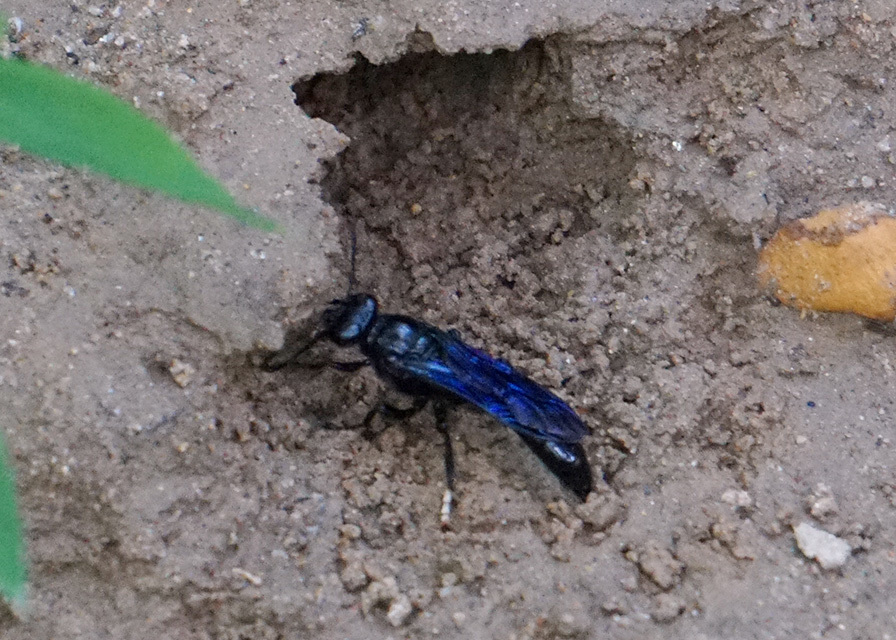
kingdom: Animalia
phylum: Arthropoda
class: Insecta
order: Hymenoptera
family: Crabronidae
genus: Trypoxylon
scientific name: Trypoxylon politum
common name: Organ-pipe mud-dauber wasp
